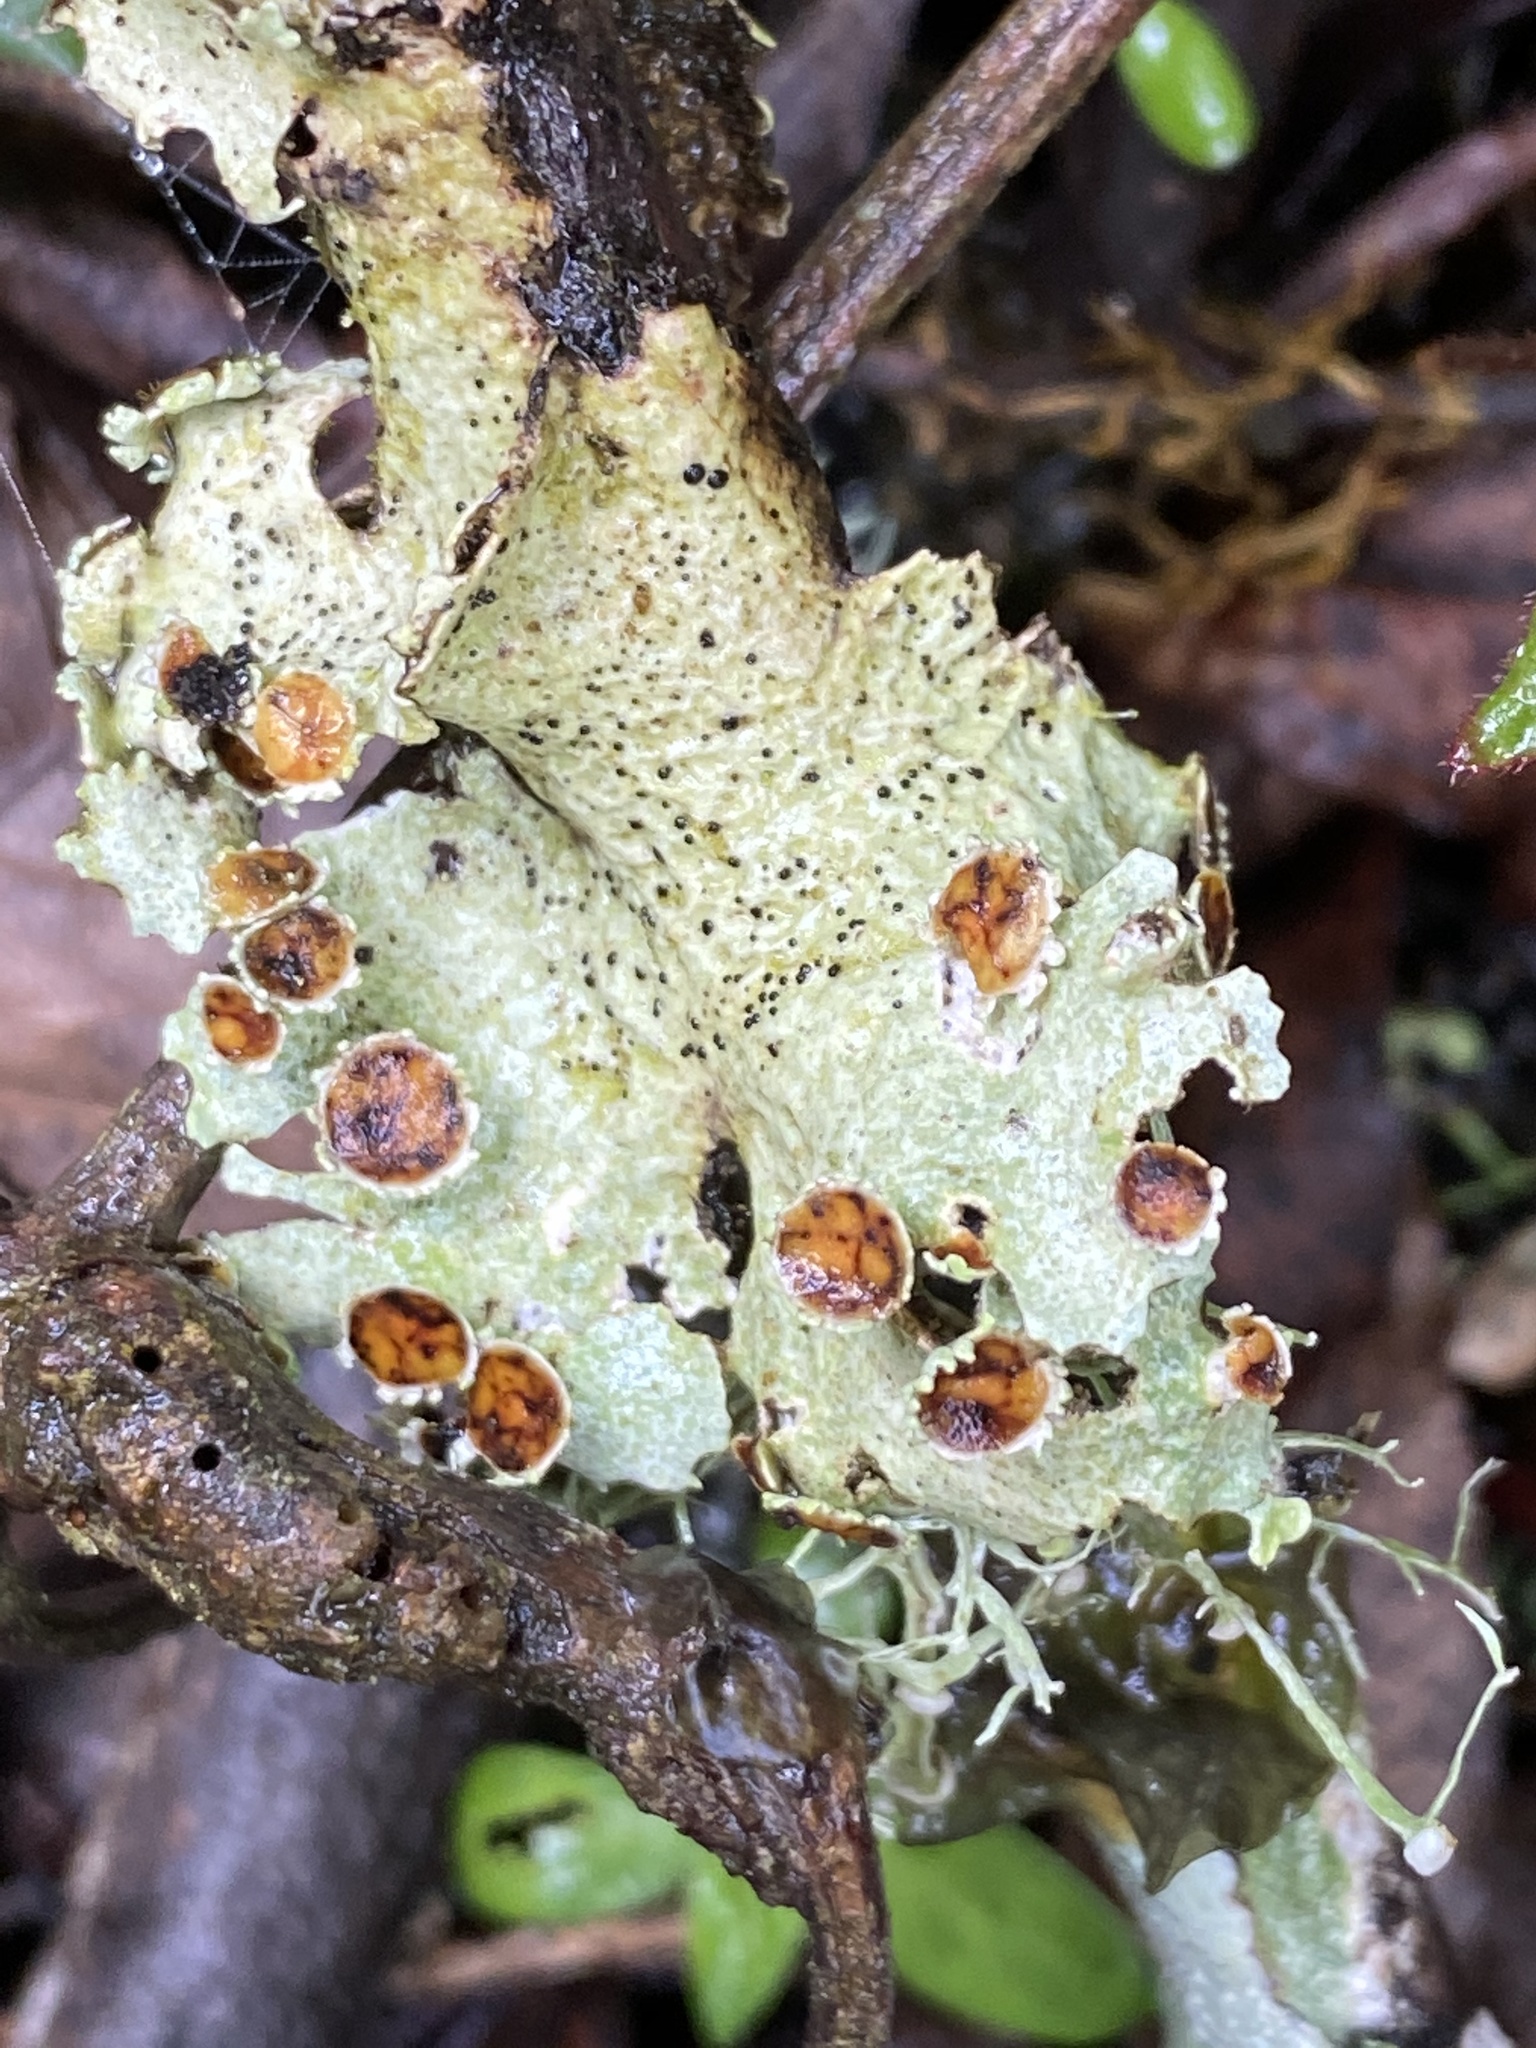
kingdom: Fungi
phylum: Ascomycota
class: Lecanoromycetes
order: Peltigerales
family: Lobariaceae
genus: Lobariella
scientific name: Lobariella pallida
